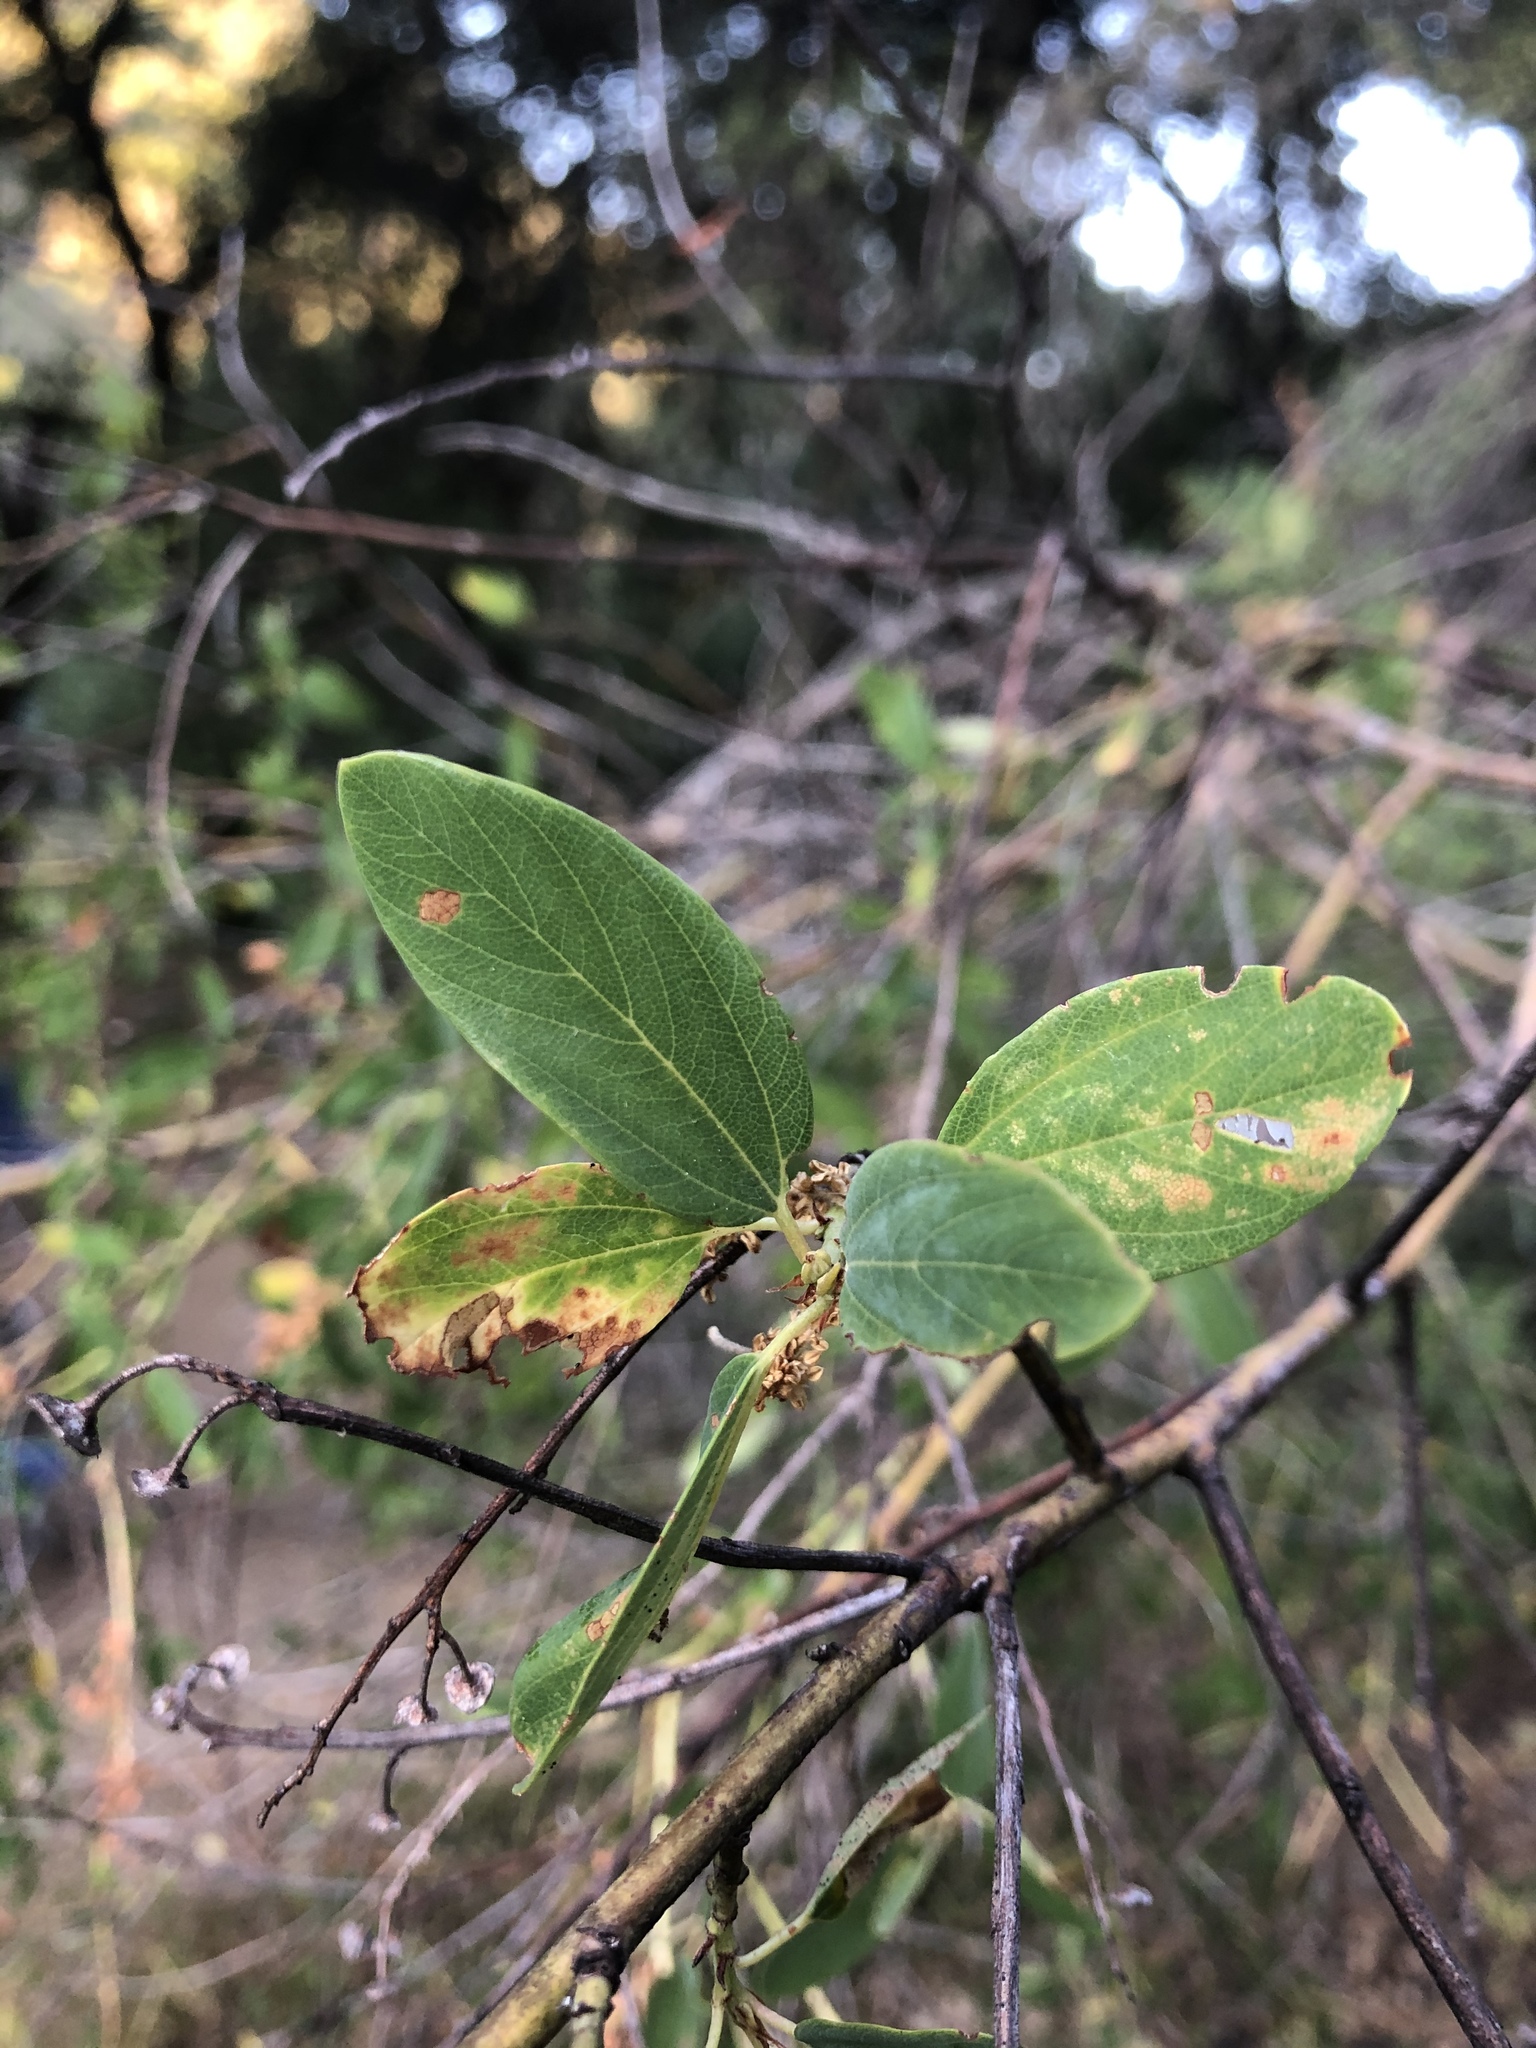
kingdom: Plantae
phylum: Tracheophyta
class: Magnoliopsida
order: Rosales
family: Rhamnaceae
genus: Ceanothus
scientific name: Ceanothus integerrimus
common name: Deerbrush ceanothus
